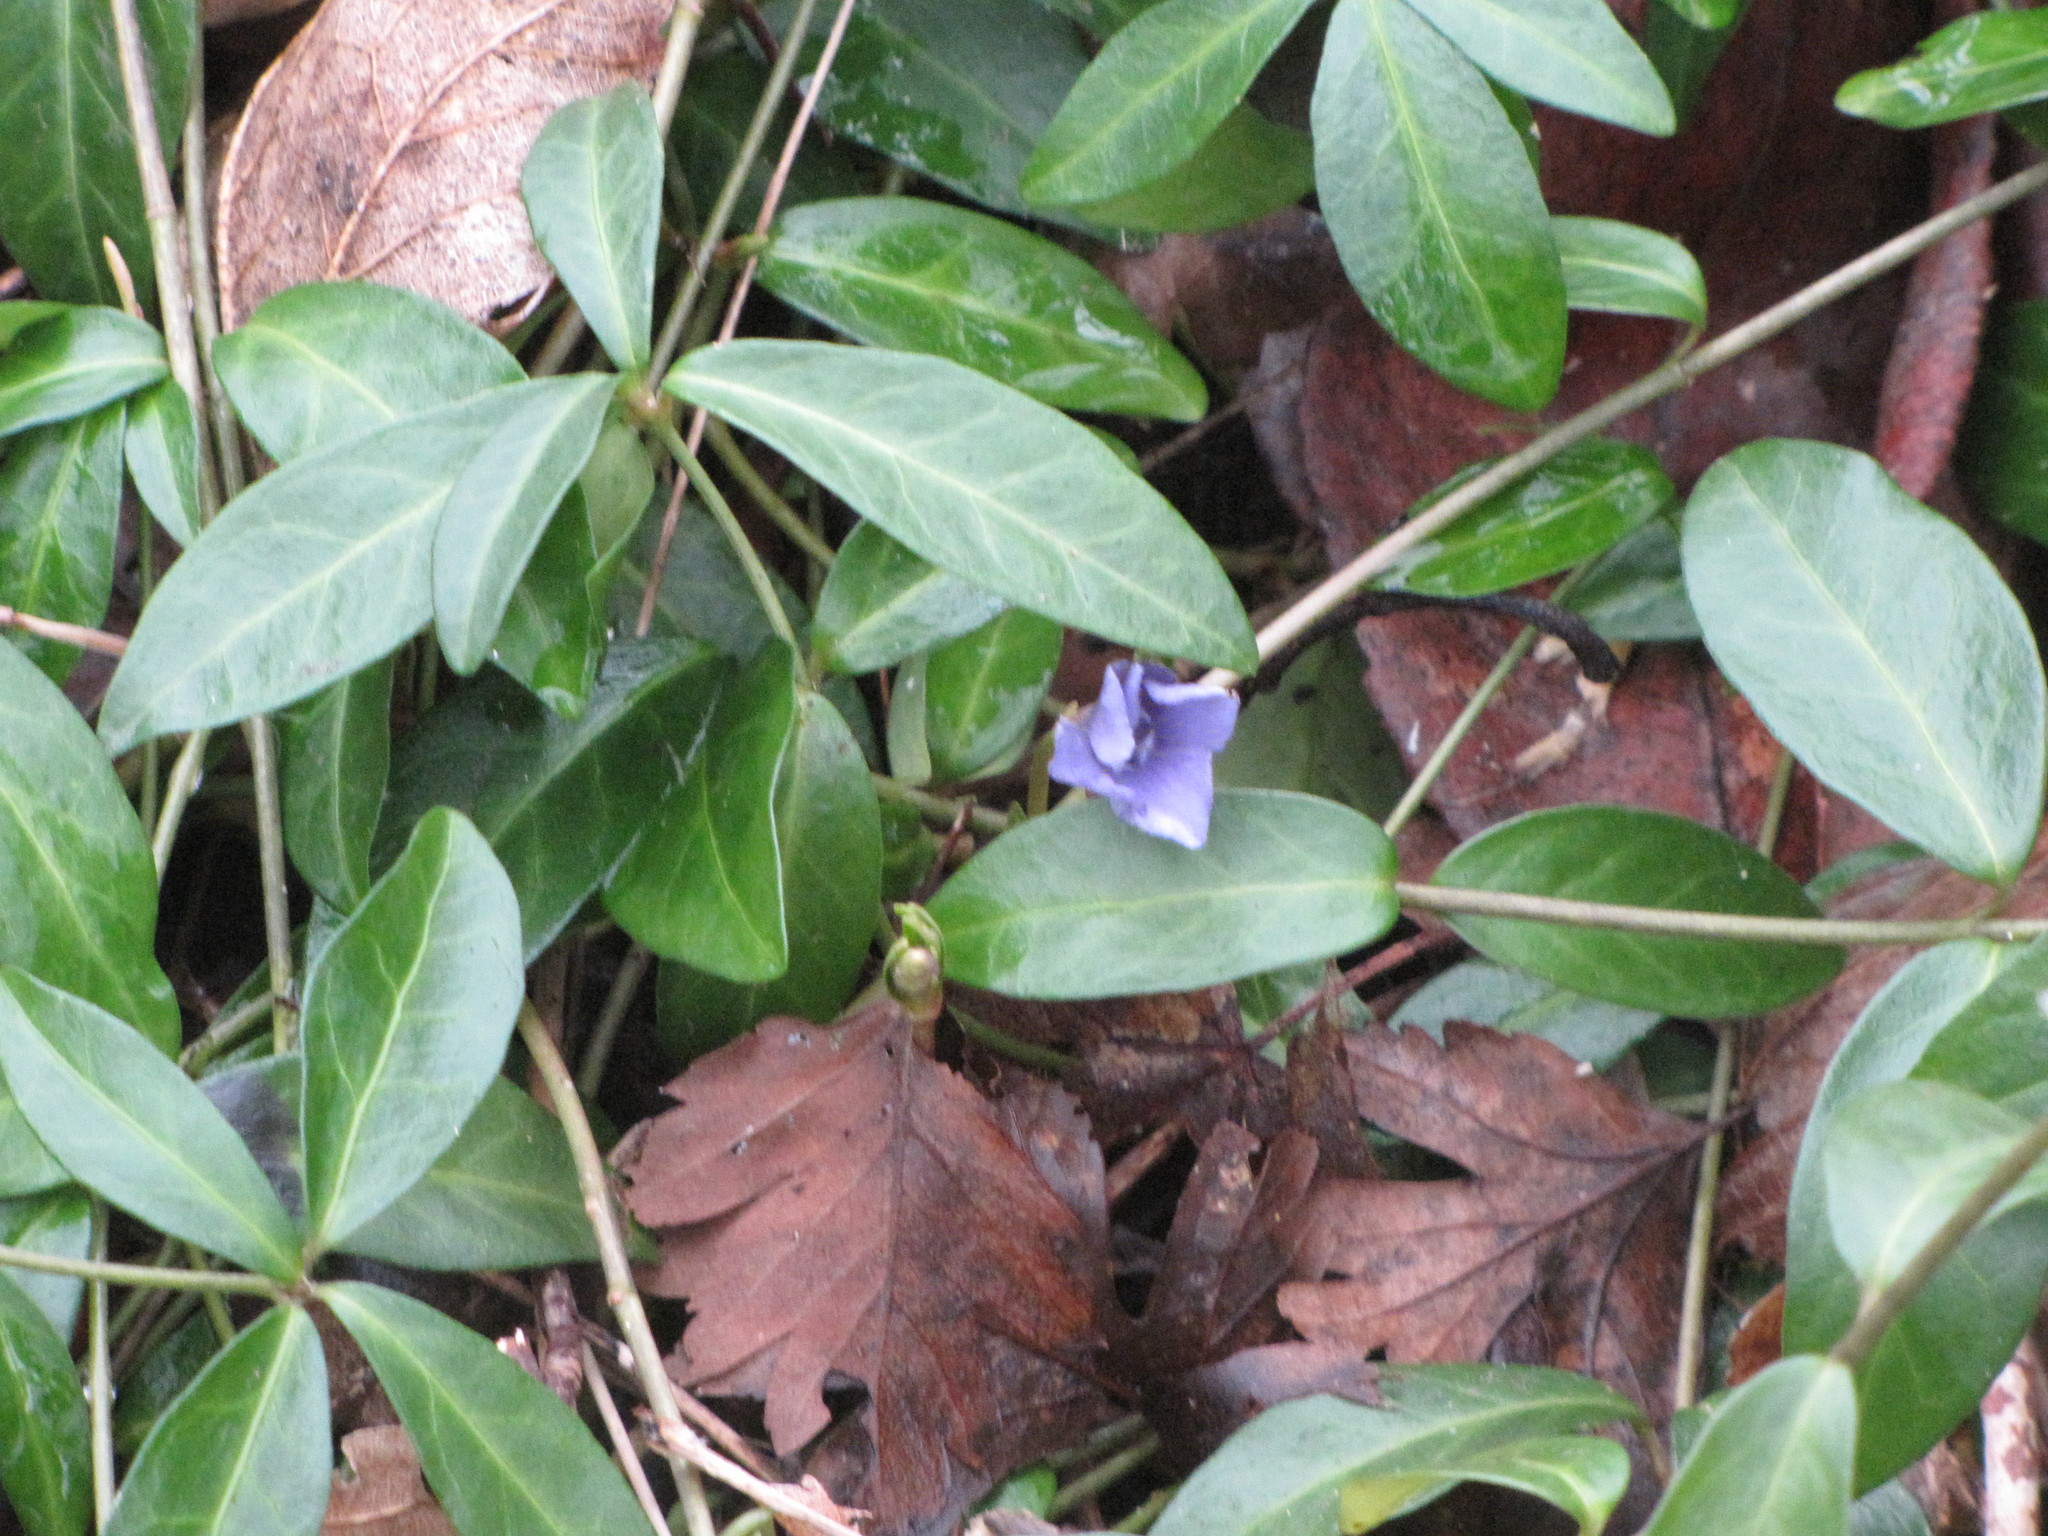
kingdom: Plantae
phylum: Tracheophyta
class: Magnoliopsida
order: Gentianales
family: Apocynaceae
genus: Vinca
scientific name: Vinca minor
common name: Lesser periwinkle
